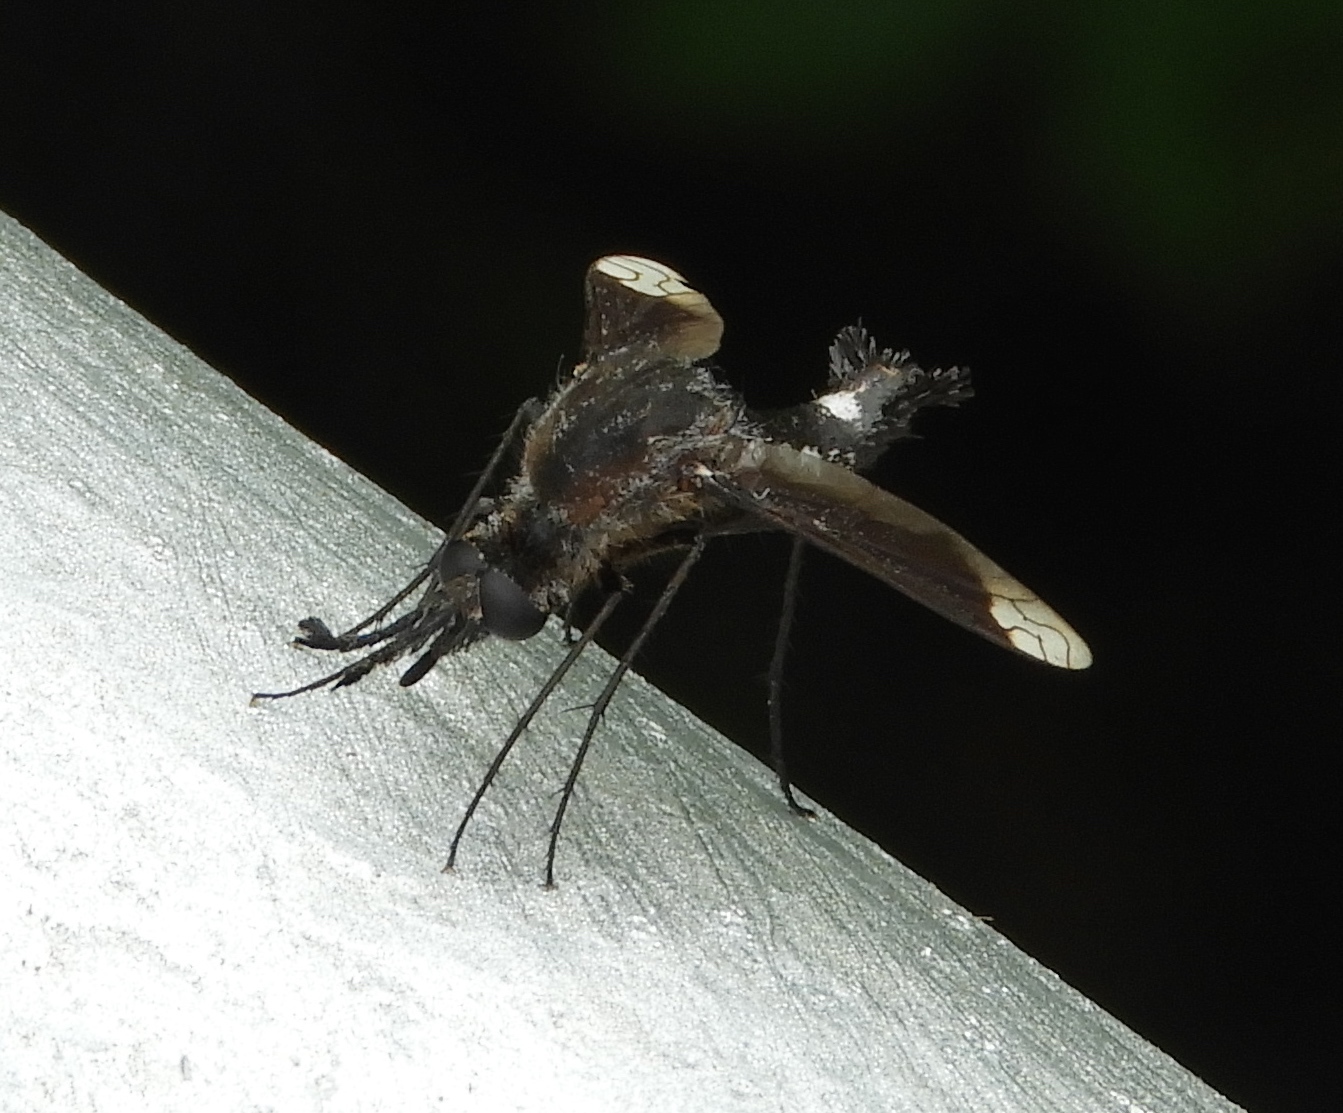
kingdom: Animalia
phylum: Arthropoda
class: Insecta
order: Diptera
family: Bombyliidae
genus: Lepidophora
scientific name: Lepidophora vetusta
